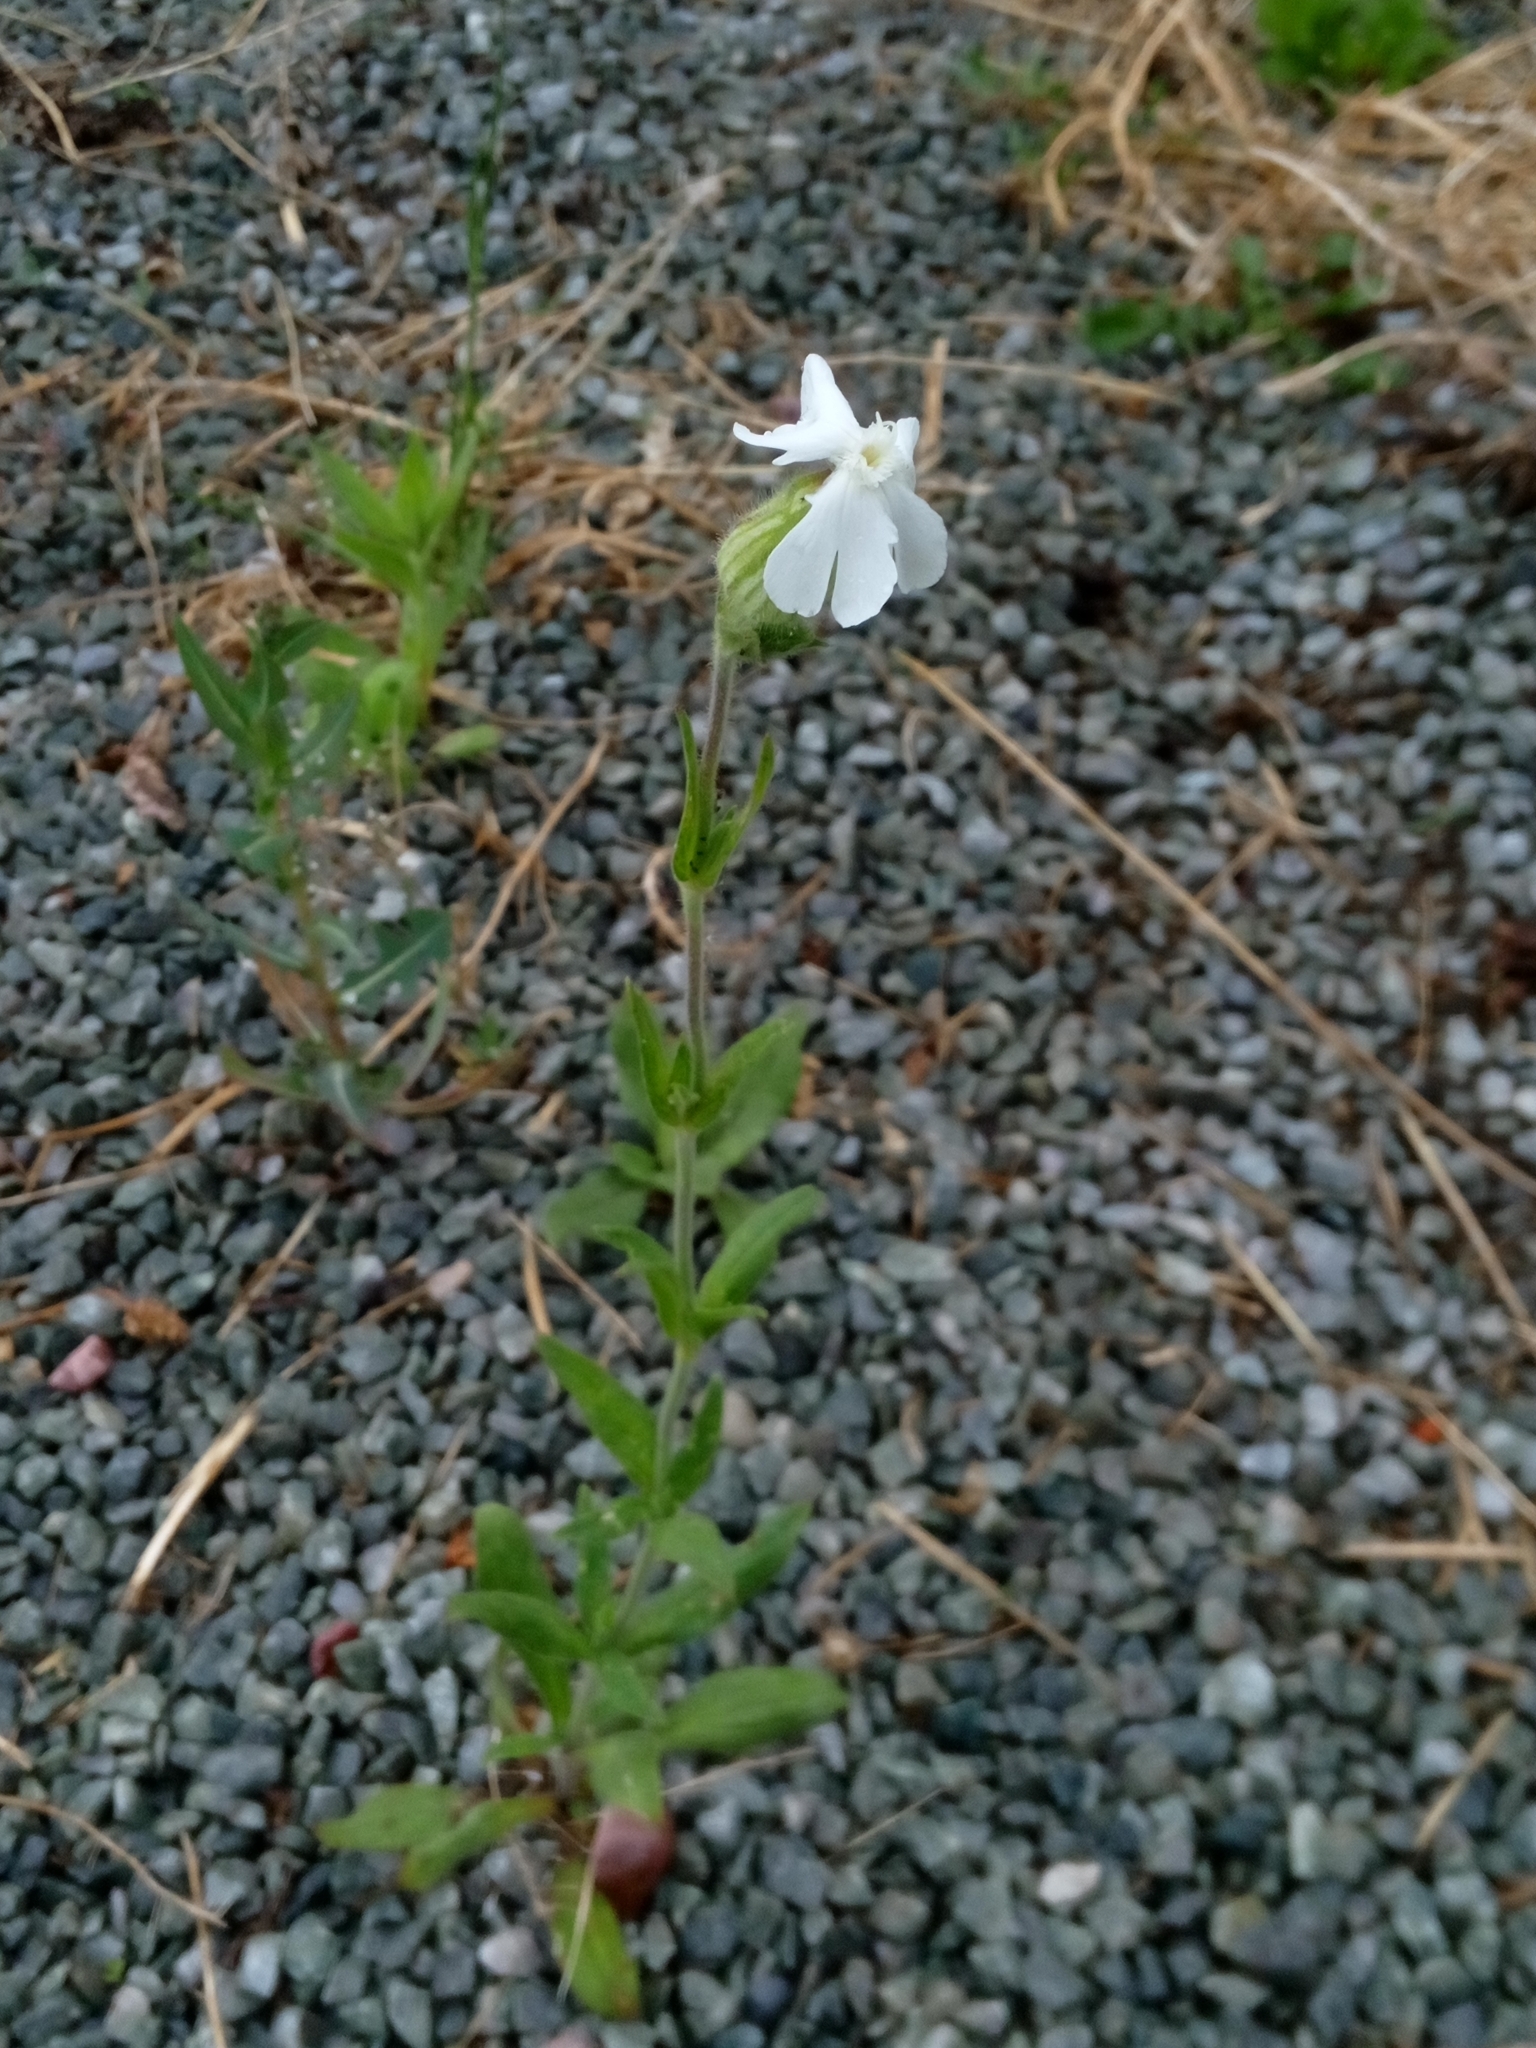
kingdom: Plantae
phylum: Tracheophyta
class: Magnoliopsida
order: Caryophyllales
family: Caryophyllaceae
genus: Silene
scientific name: Silene latifolia
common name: White campion
